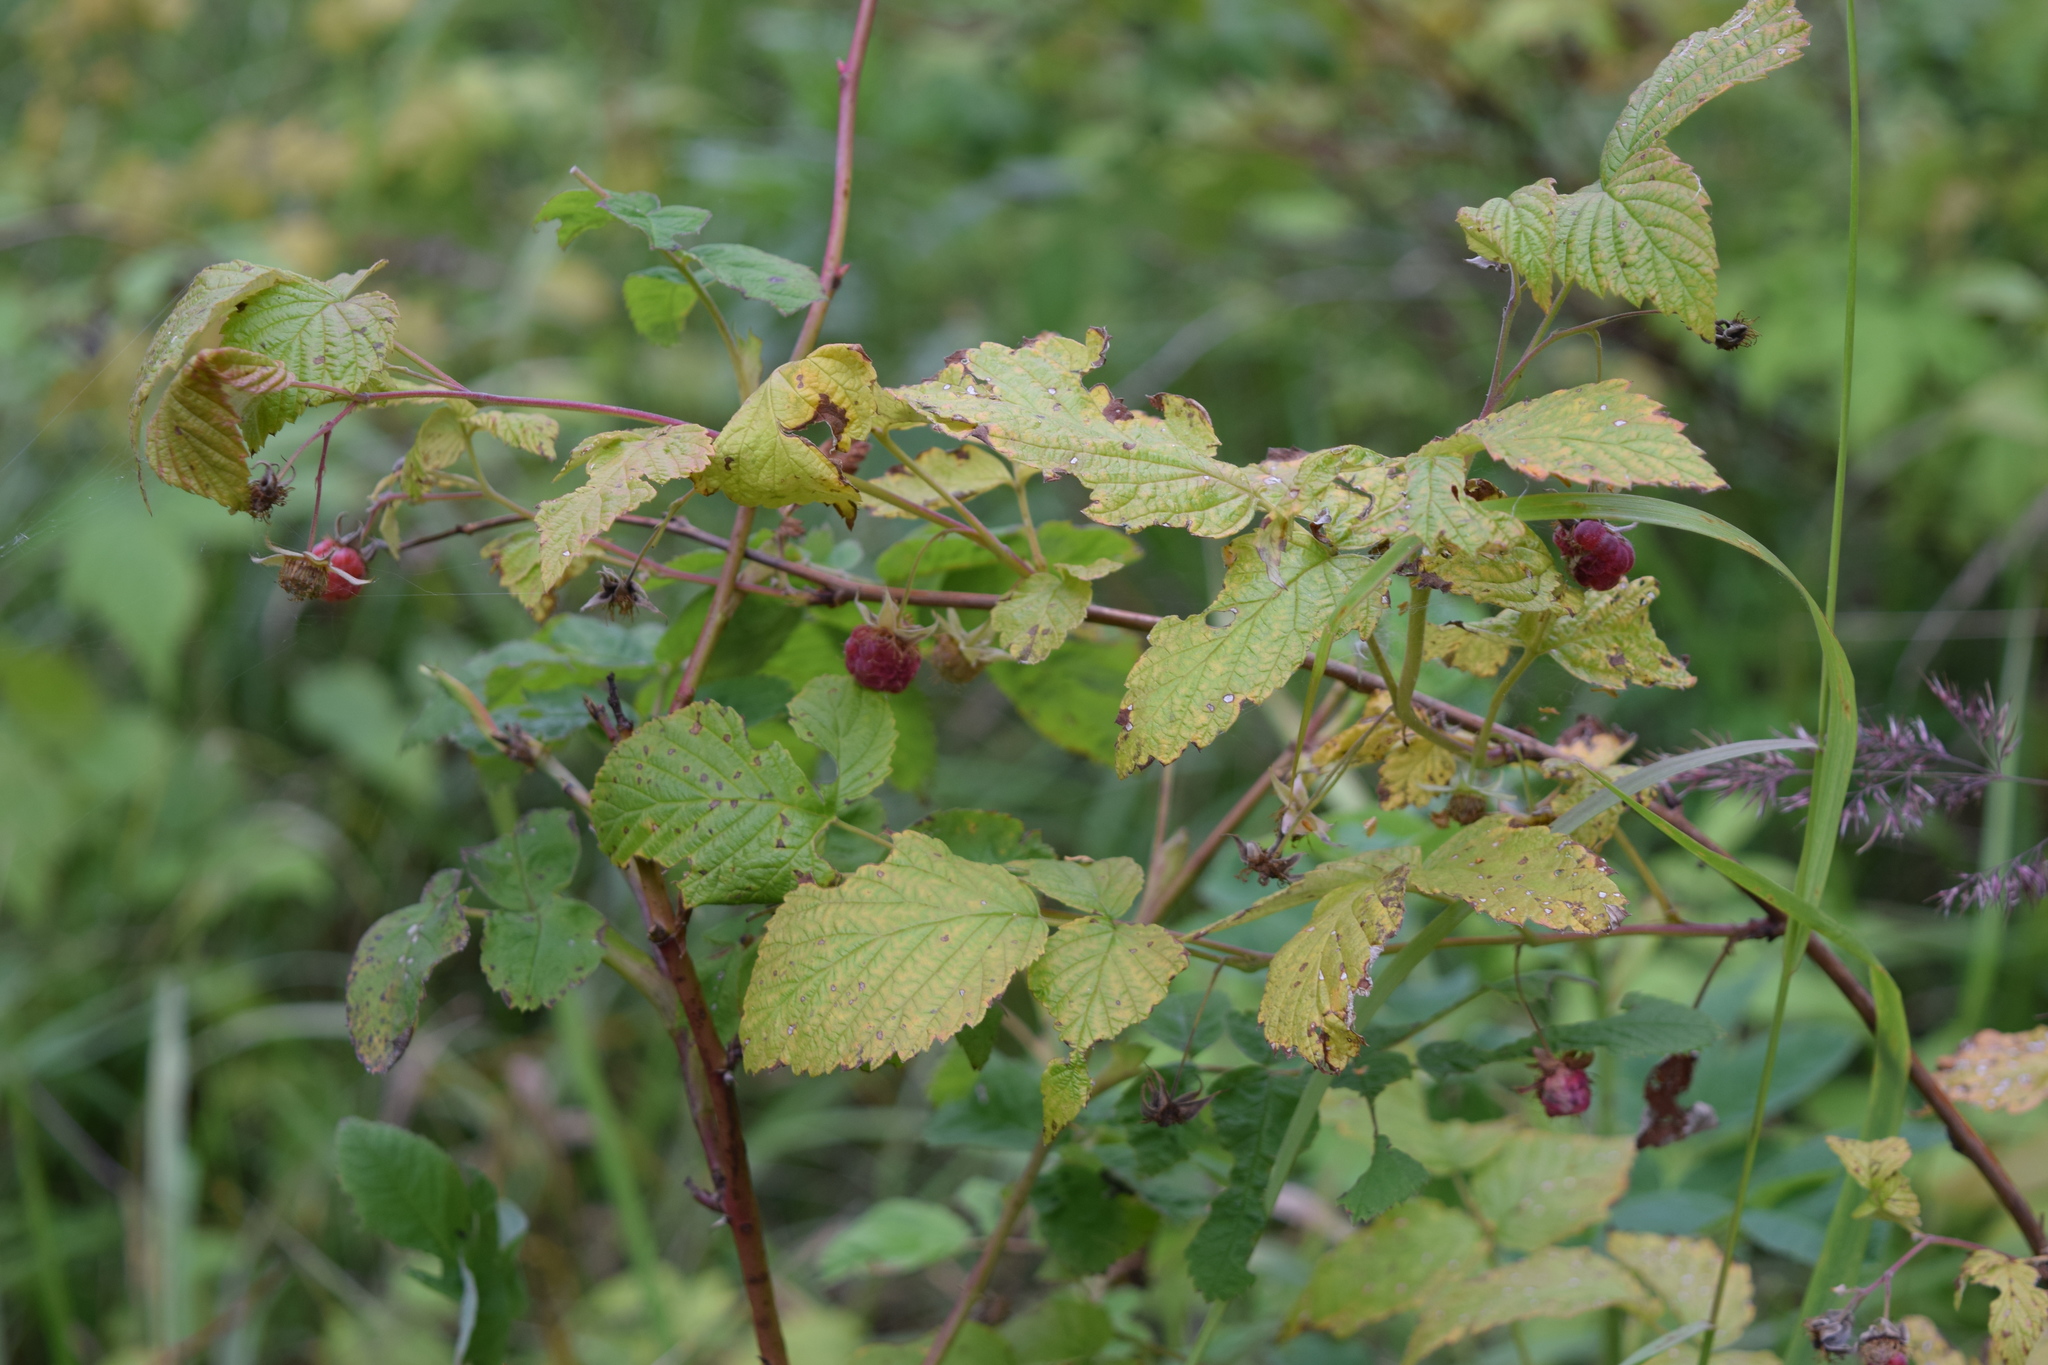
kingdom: Plantae
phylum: Tracheophyta
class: Magnoliopsida
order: Rosales
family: Rosaceae
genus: Rubus
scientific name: Rubus idaeus
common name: Raspberry
